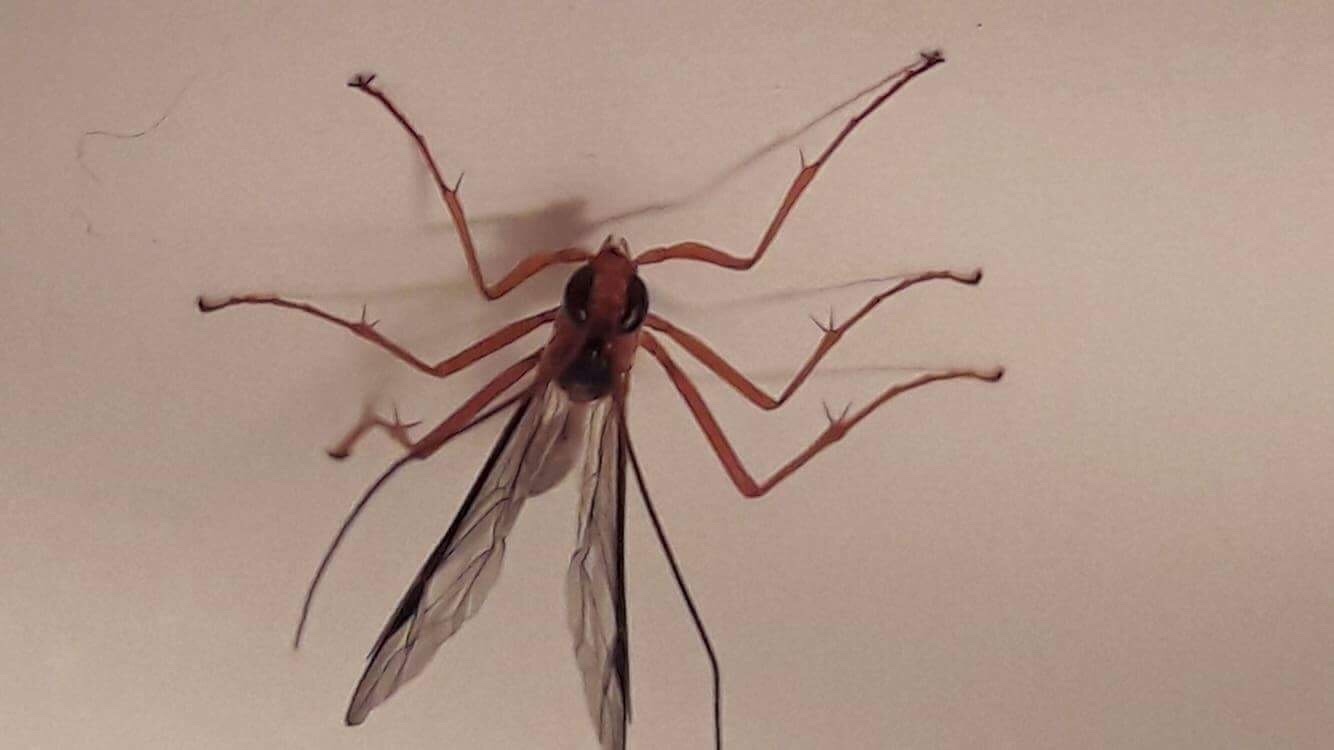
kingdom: Animalia
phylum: Arthropoda
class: Insecta
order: Hymenoptera
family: Ichneumonidae
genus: Netelia
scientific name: Netelia ephippiata
